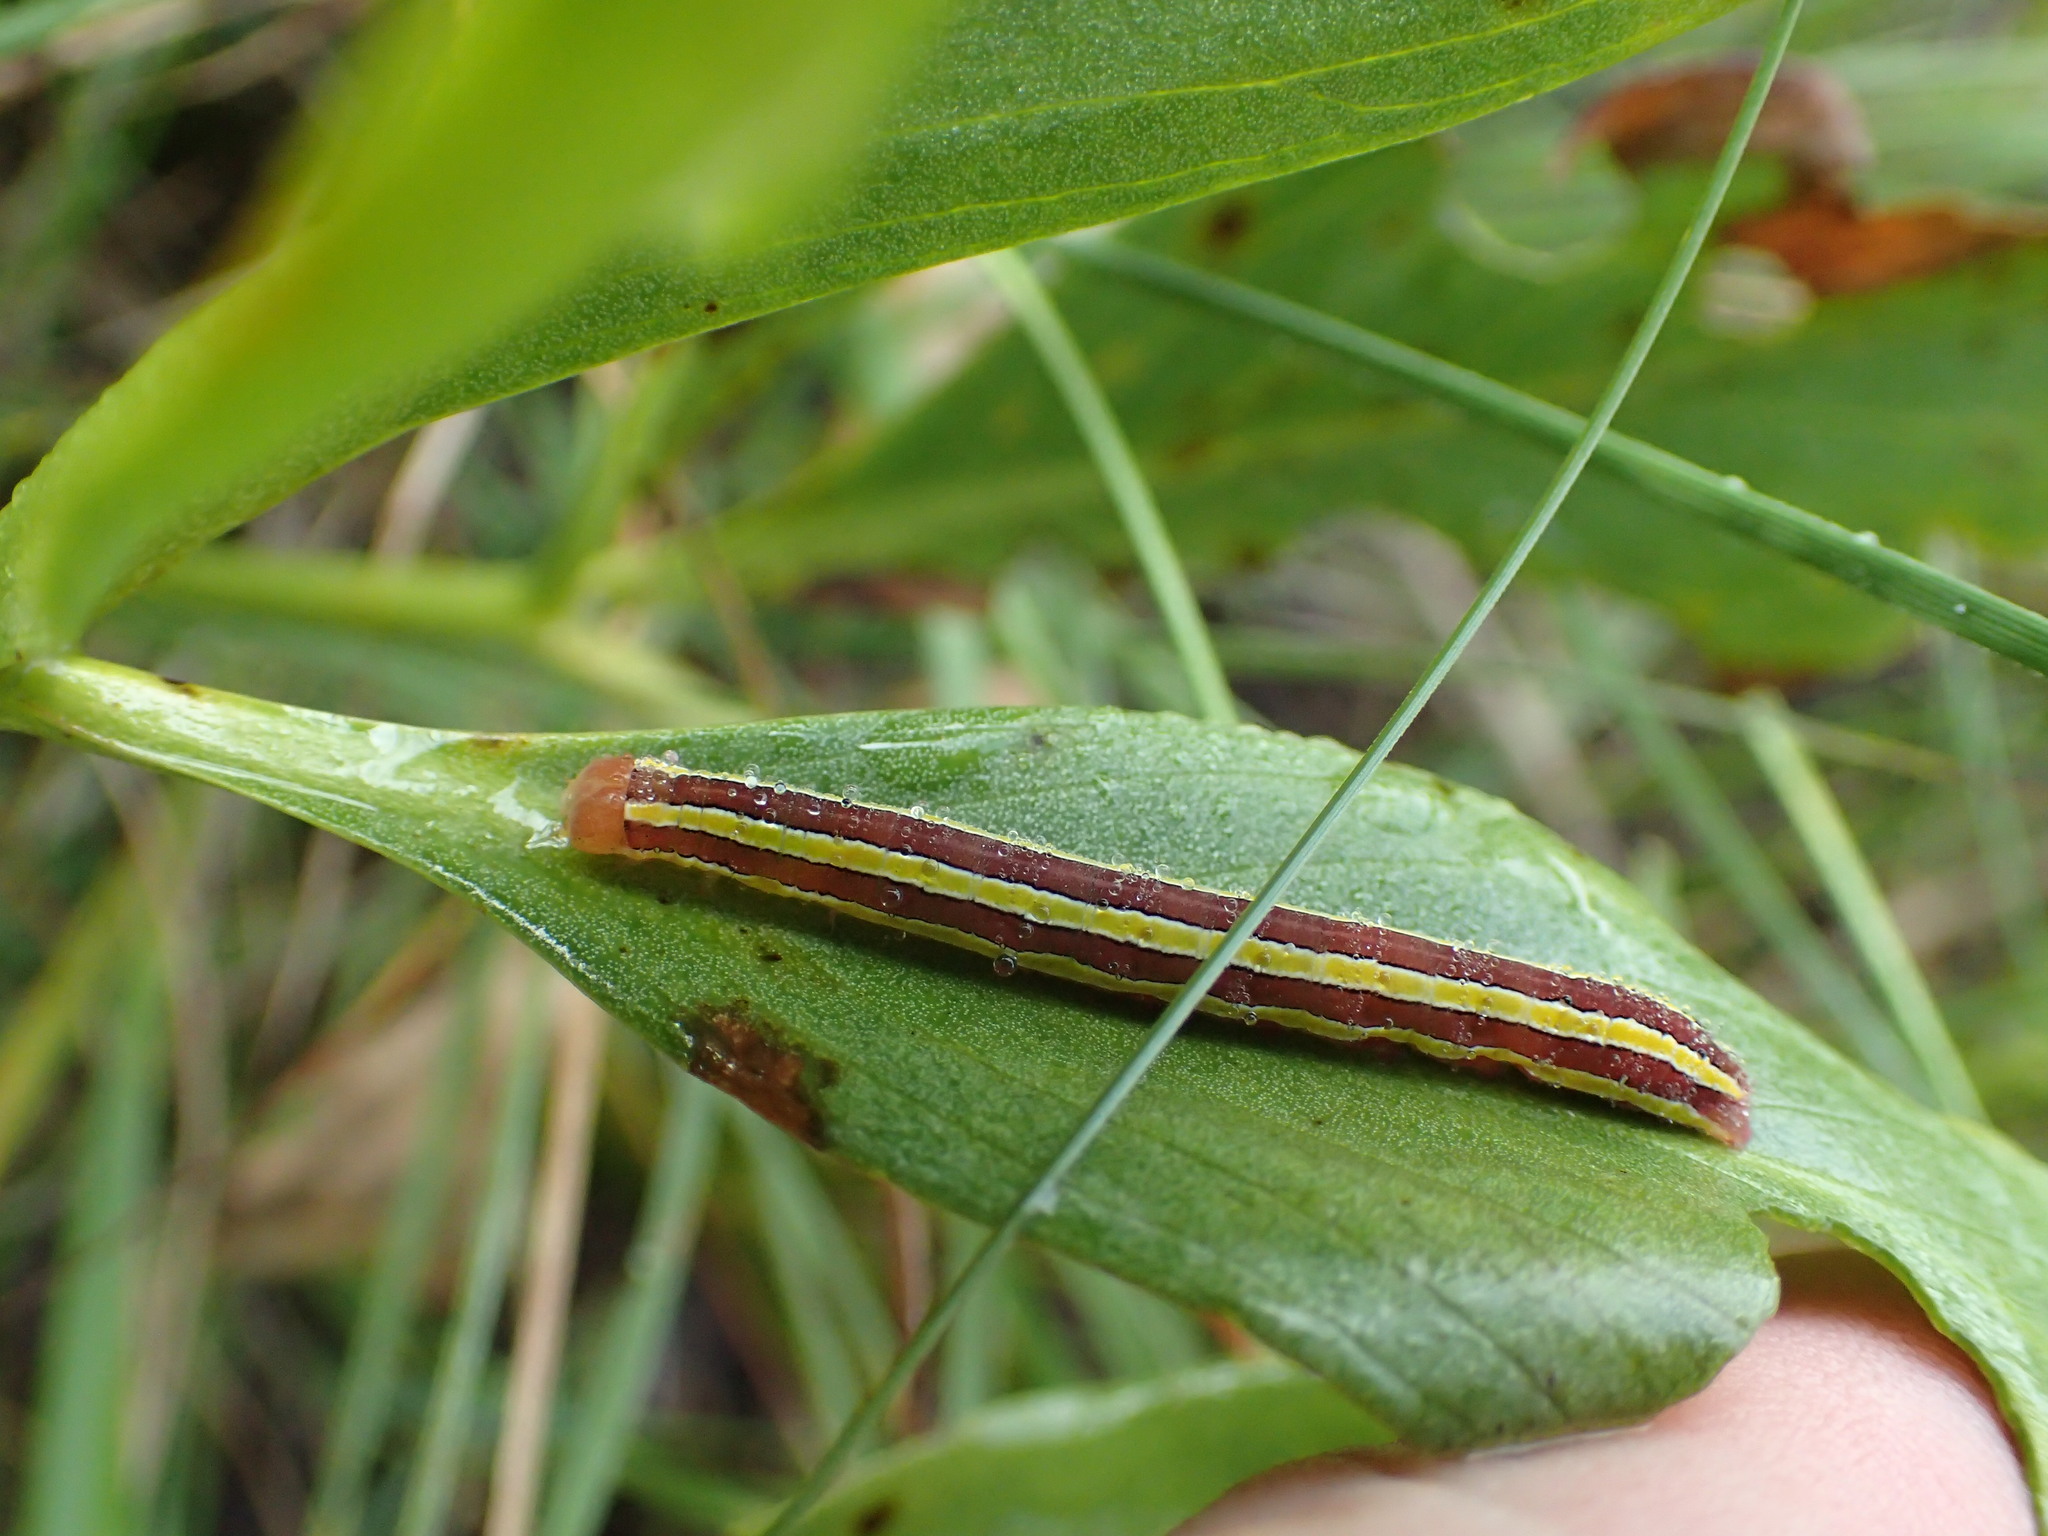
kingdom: Animalia
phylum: Arthropoda
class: Insecta
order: Lepidoptera
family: Noctuidae
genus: Melanchra
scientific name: Melanchra assimilis
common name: Black arches
